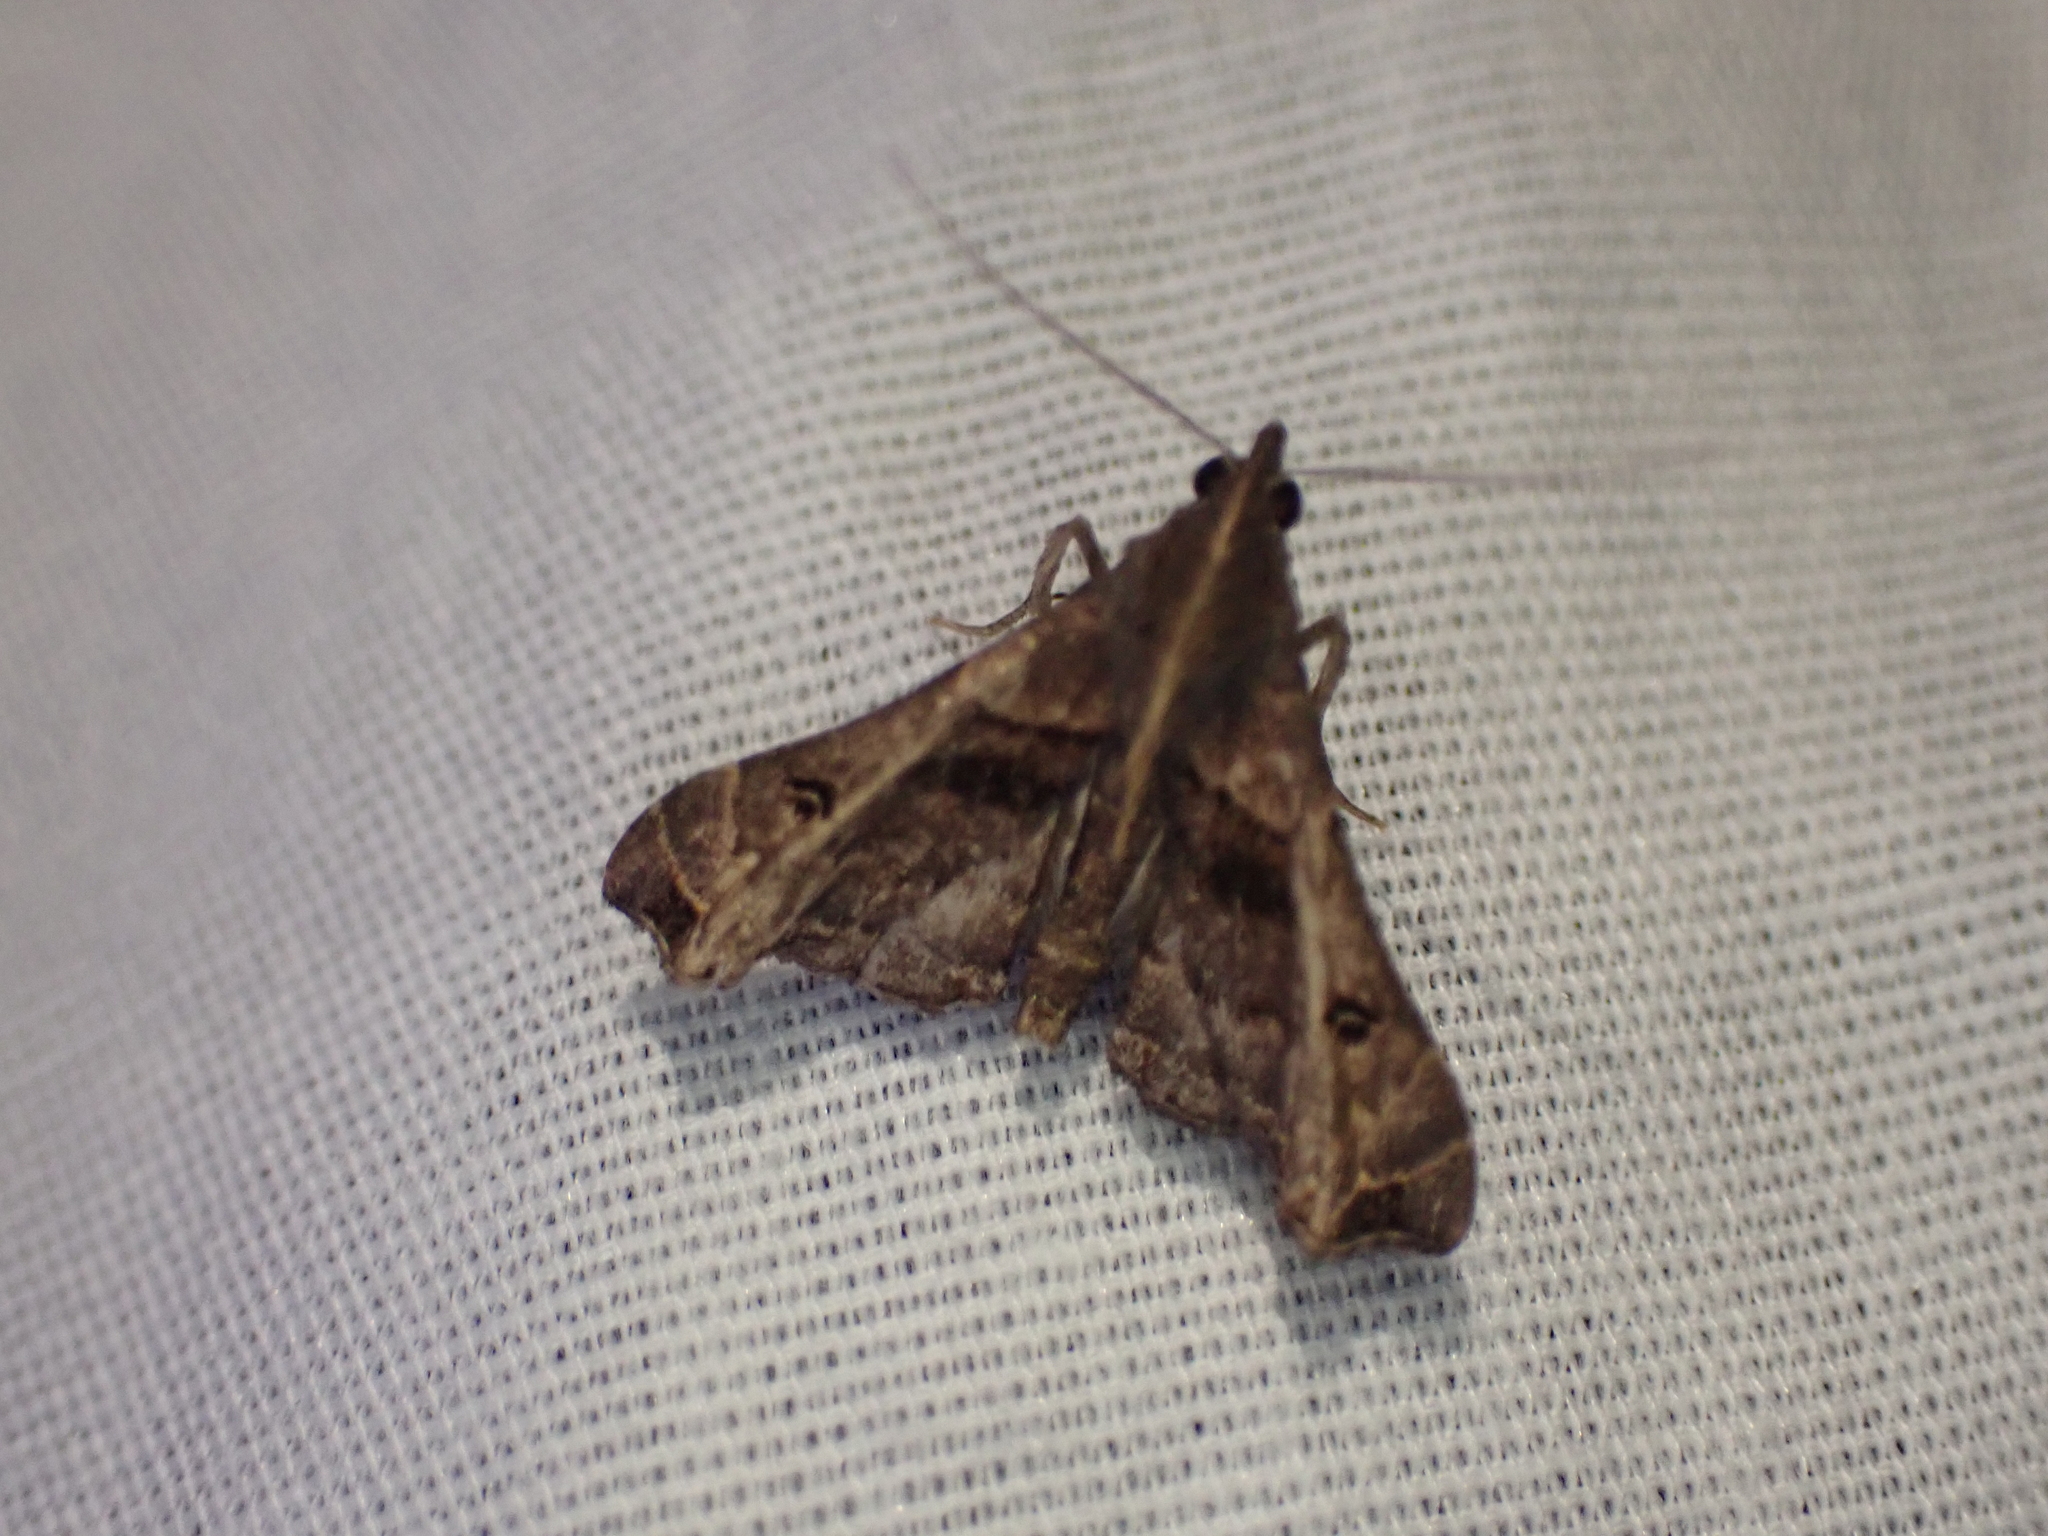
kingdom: Animalia
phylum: Arthropoda
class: Insecta
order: Lepidoptera
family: Erebidae
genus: Palthis
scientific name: Palthis asopialis
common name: Faint-spotted palthis moth
